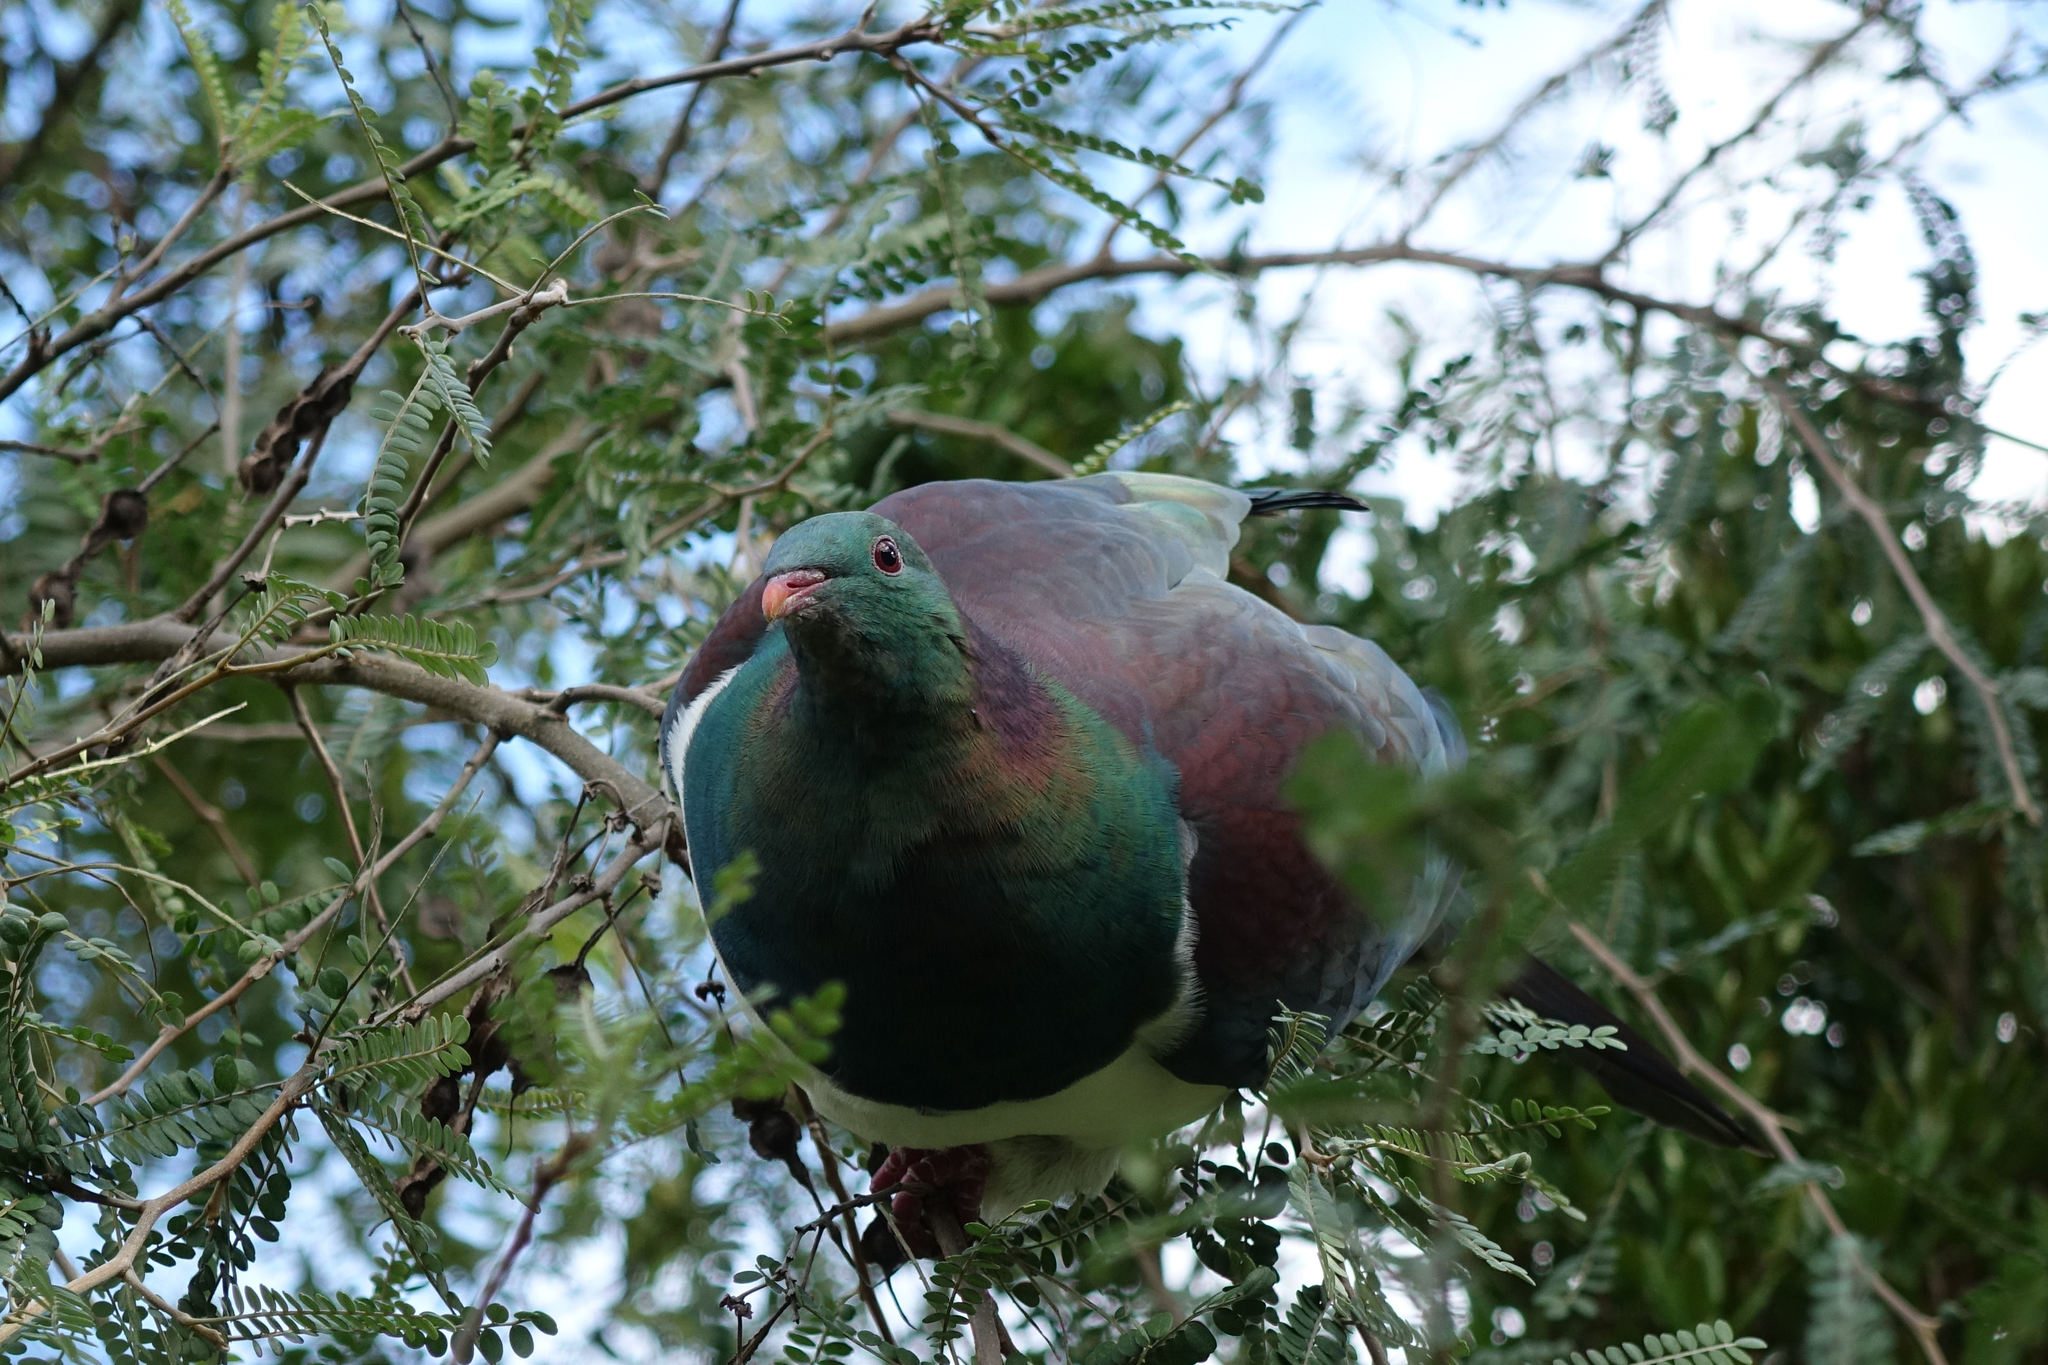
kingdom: Animalia
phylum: Chordata
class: Aves
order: Columbiformes
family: Columbidae
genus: Hemiphaga
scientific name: Hemiphaga novaeseelandiae
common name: New zealand pigeon
